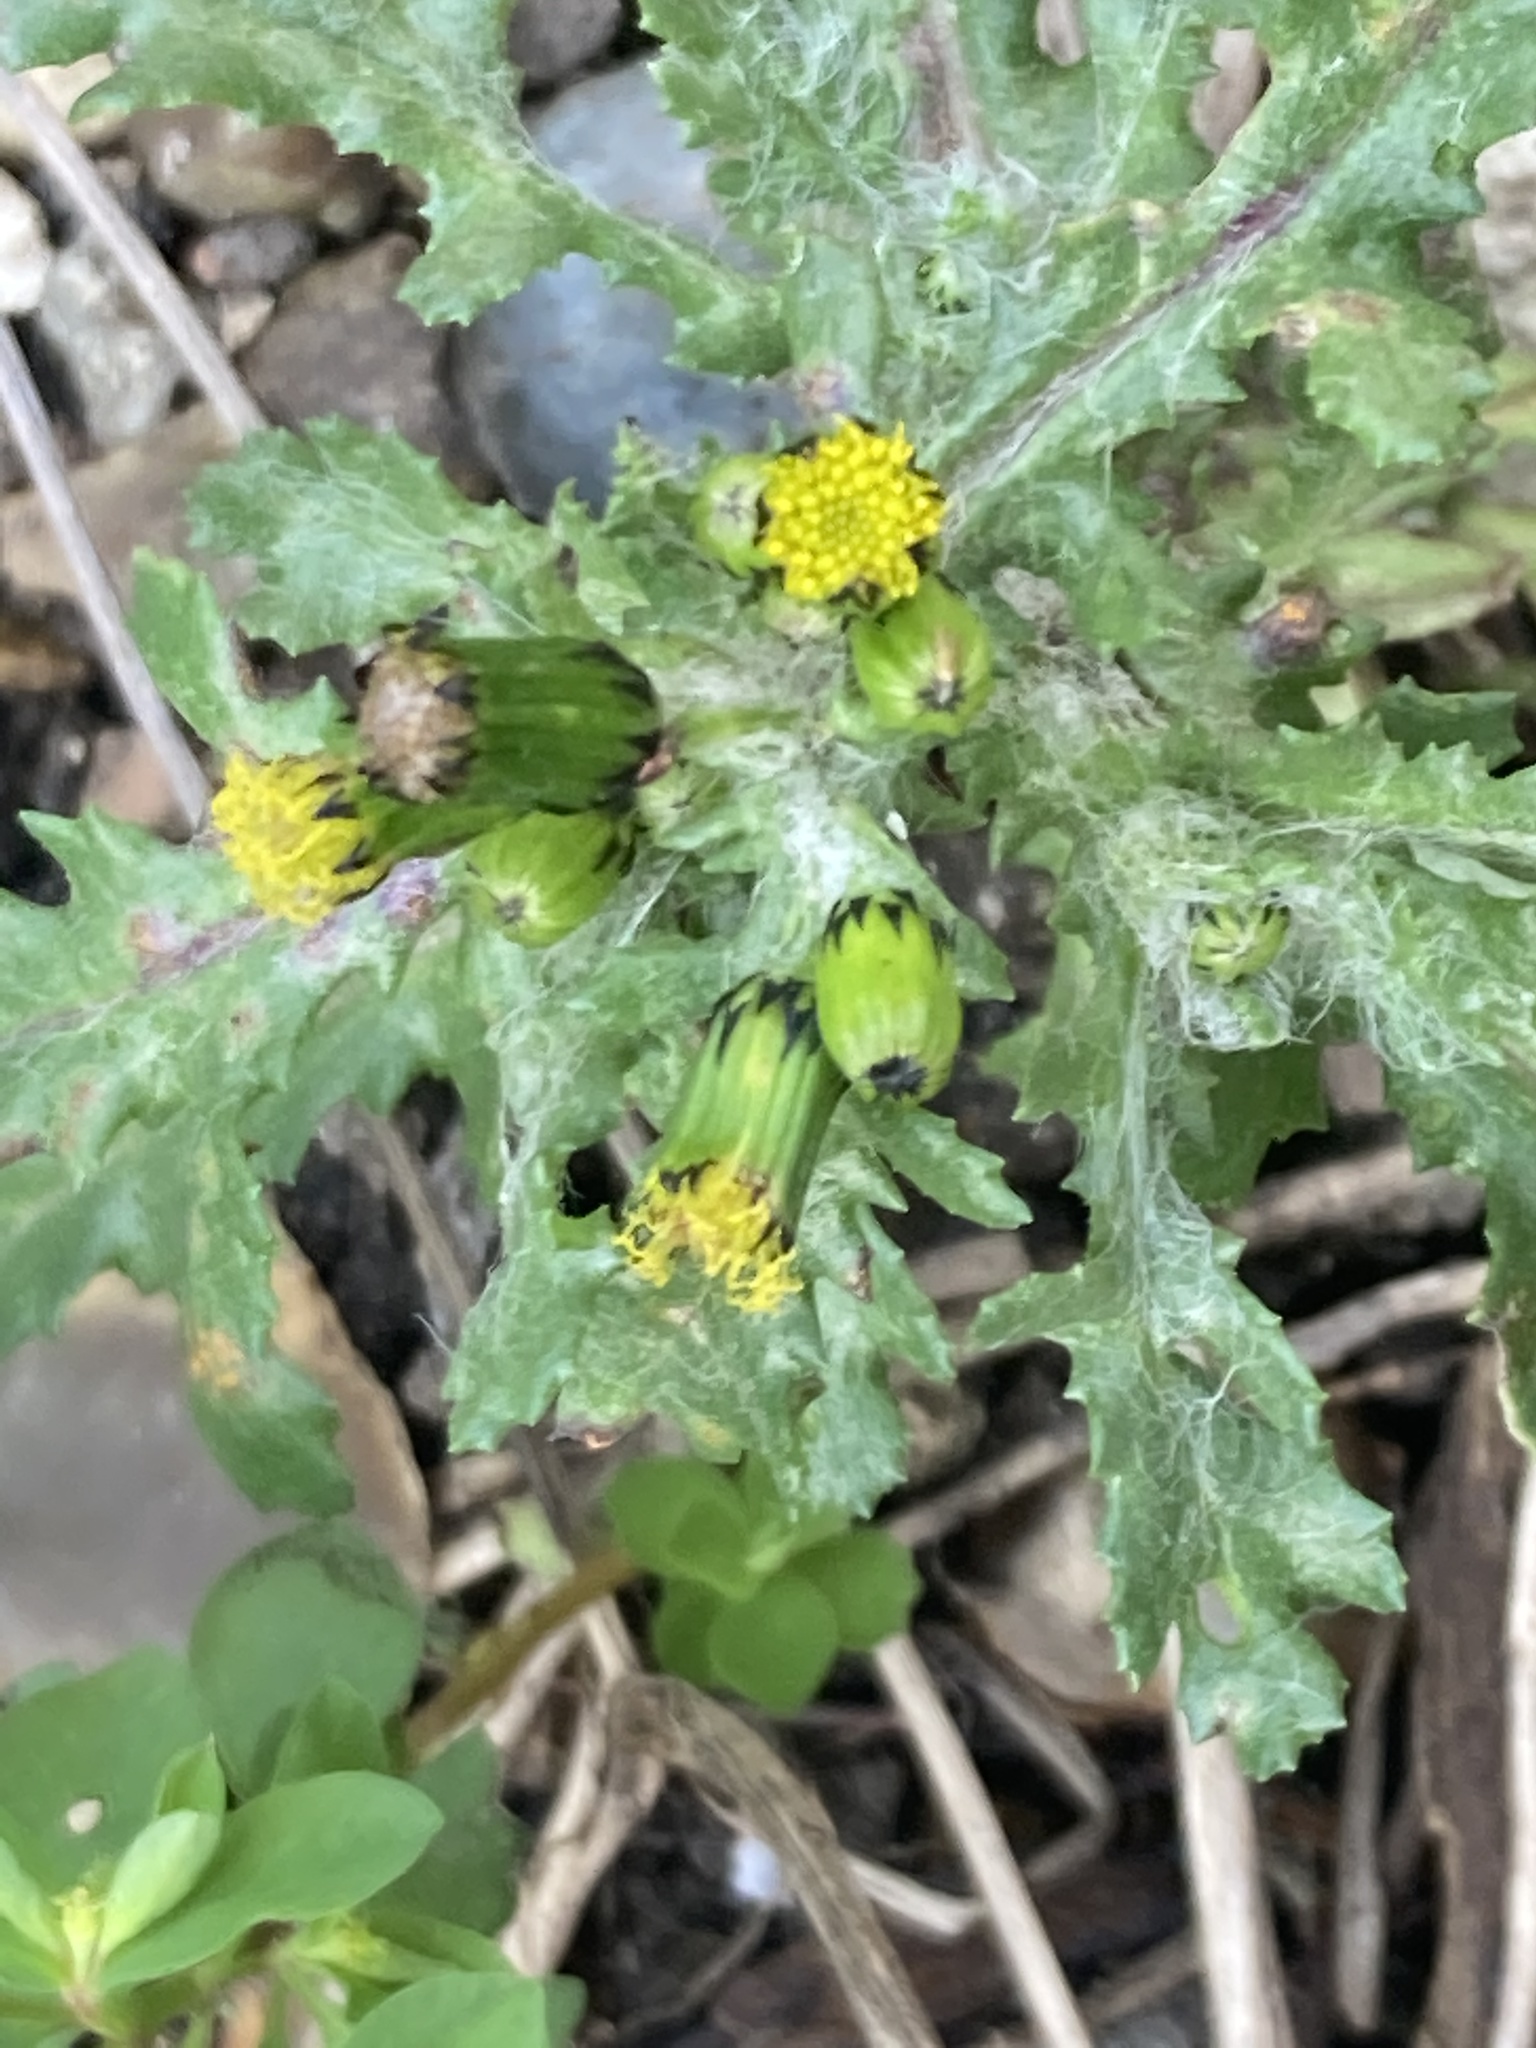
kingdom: Plantae
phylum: Tracheophyta
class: Magnoliopsida
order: Asterales
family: Asteraceae
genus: Senecio
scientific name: Senecio vulgaris
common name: Old-man-in-the-spring
